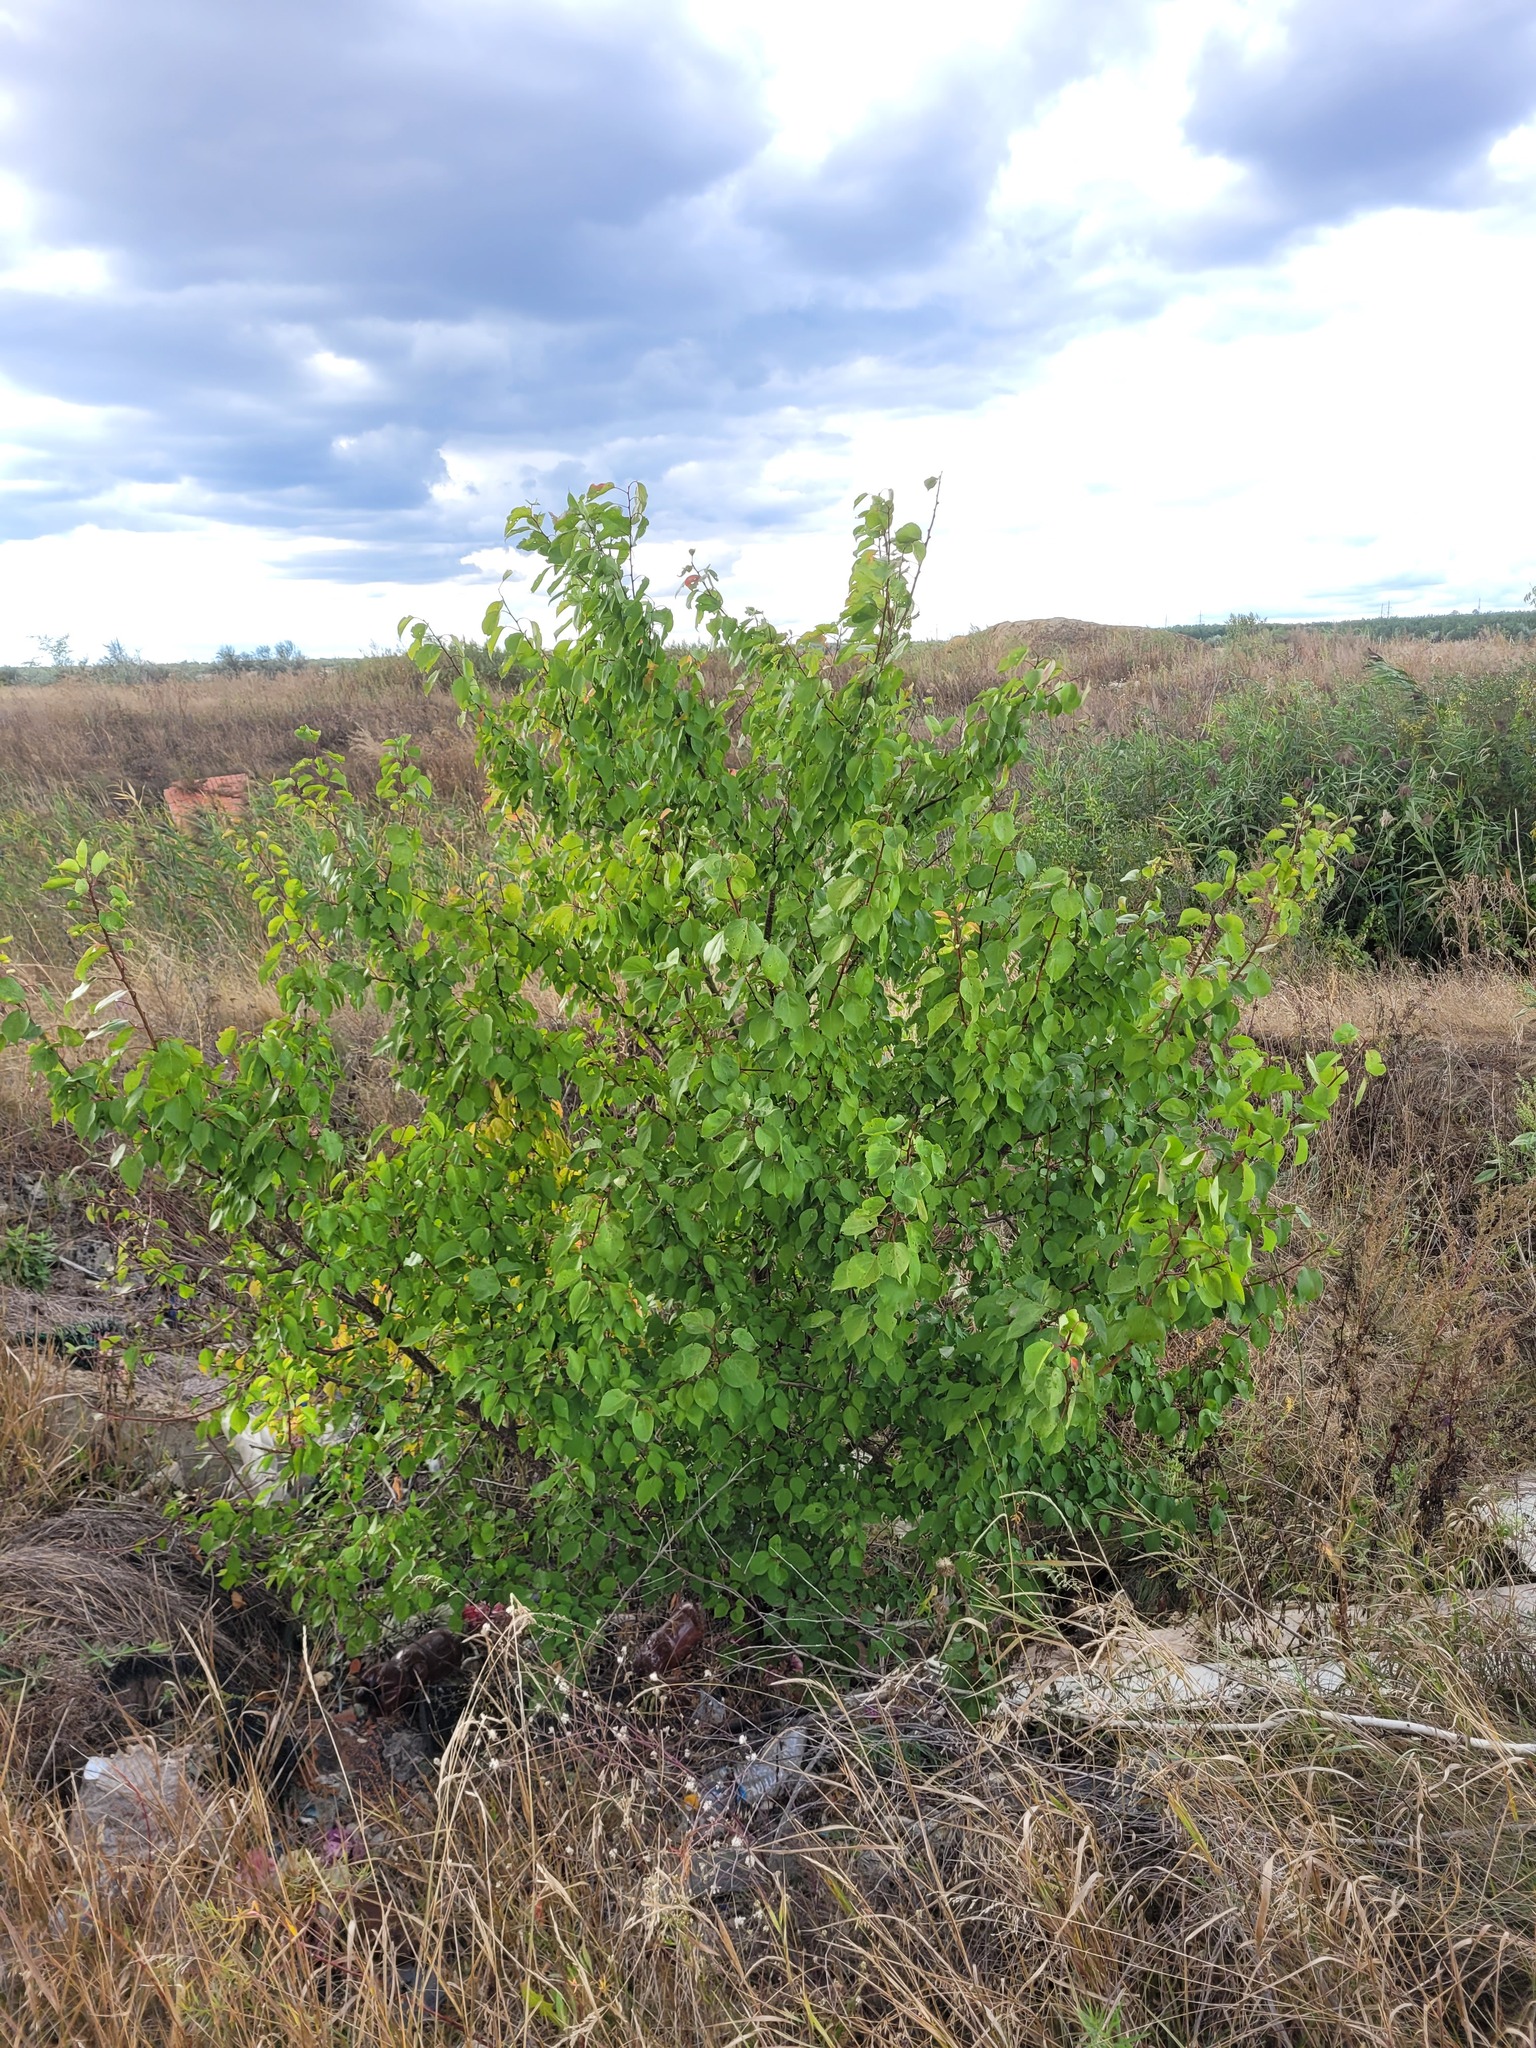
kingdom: Plantae
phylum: Tracheophyta
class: Magnoliopsida
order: Rosales
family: Rosaceae
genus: Prunus
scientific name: Prunus armeniaca
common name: Apricot
